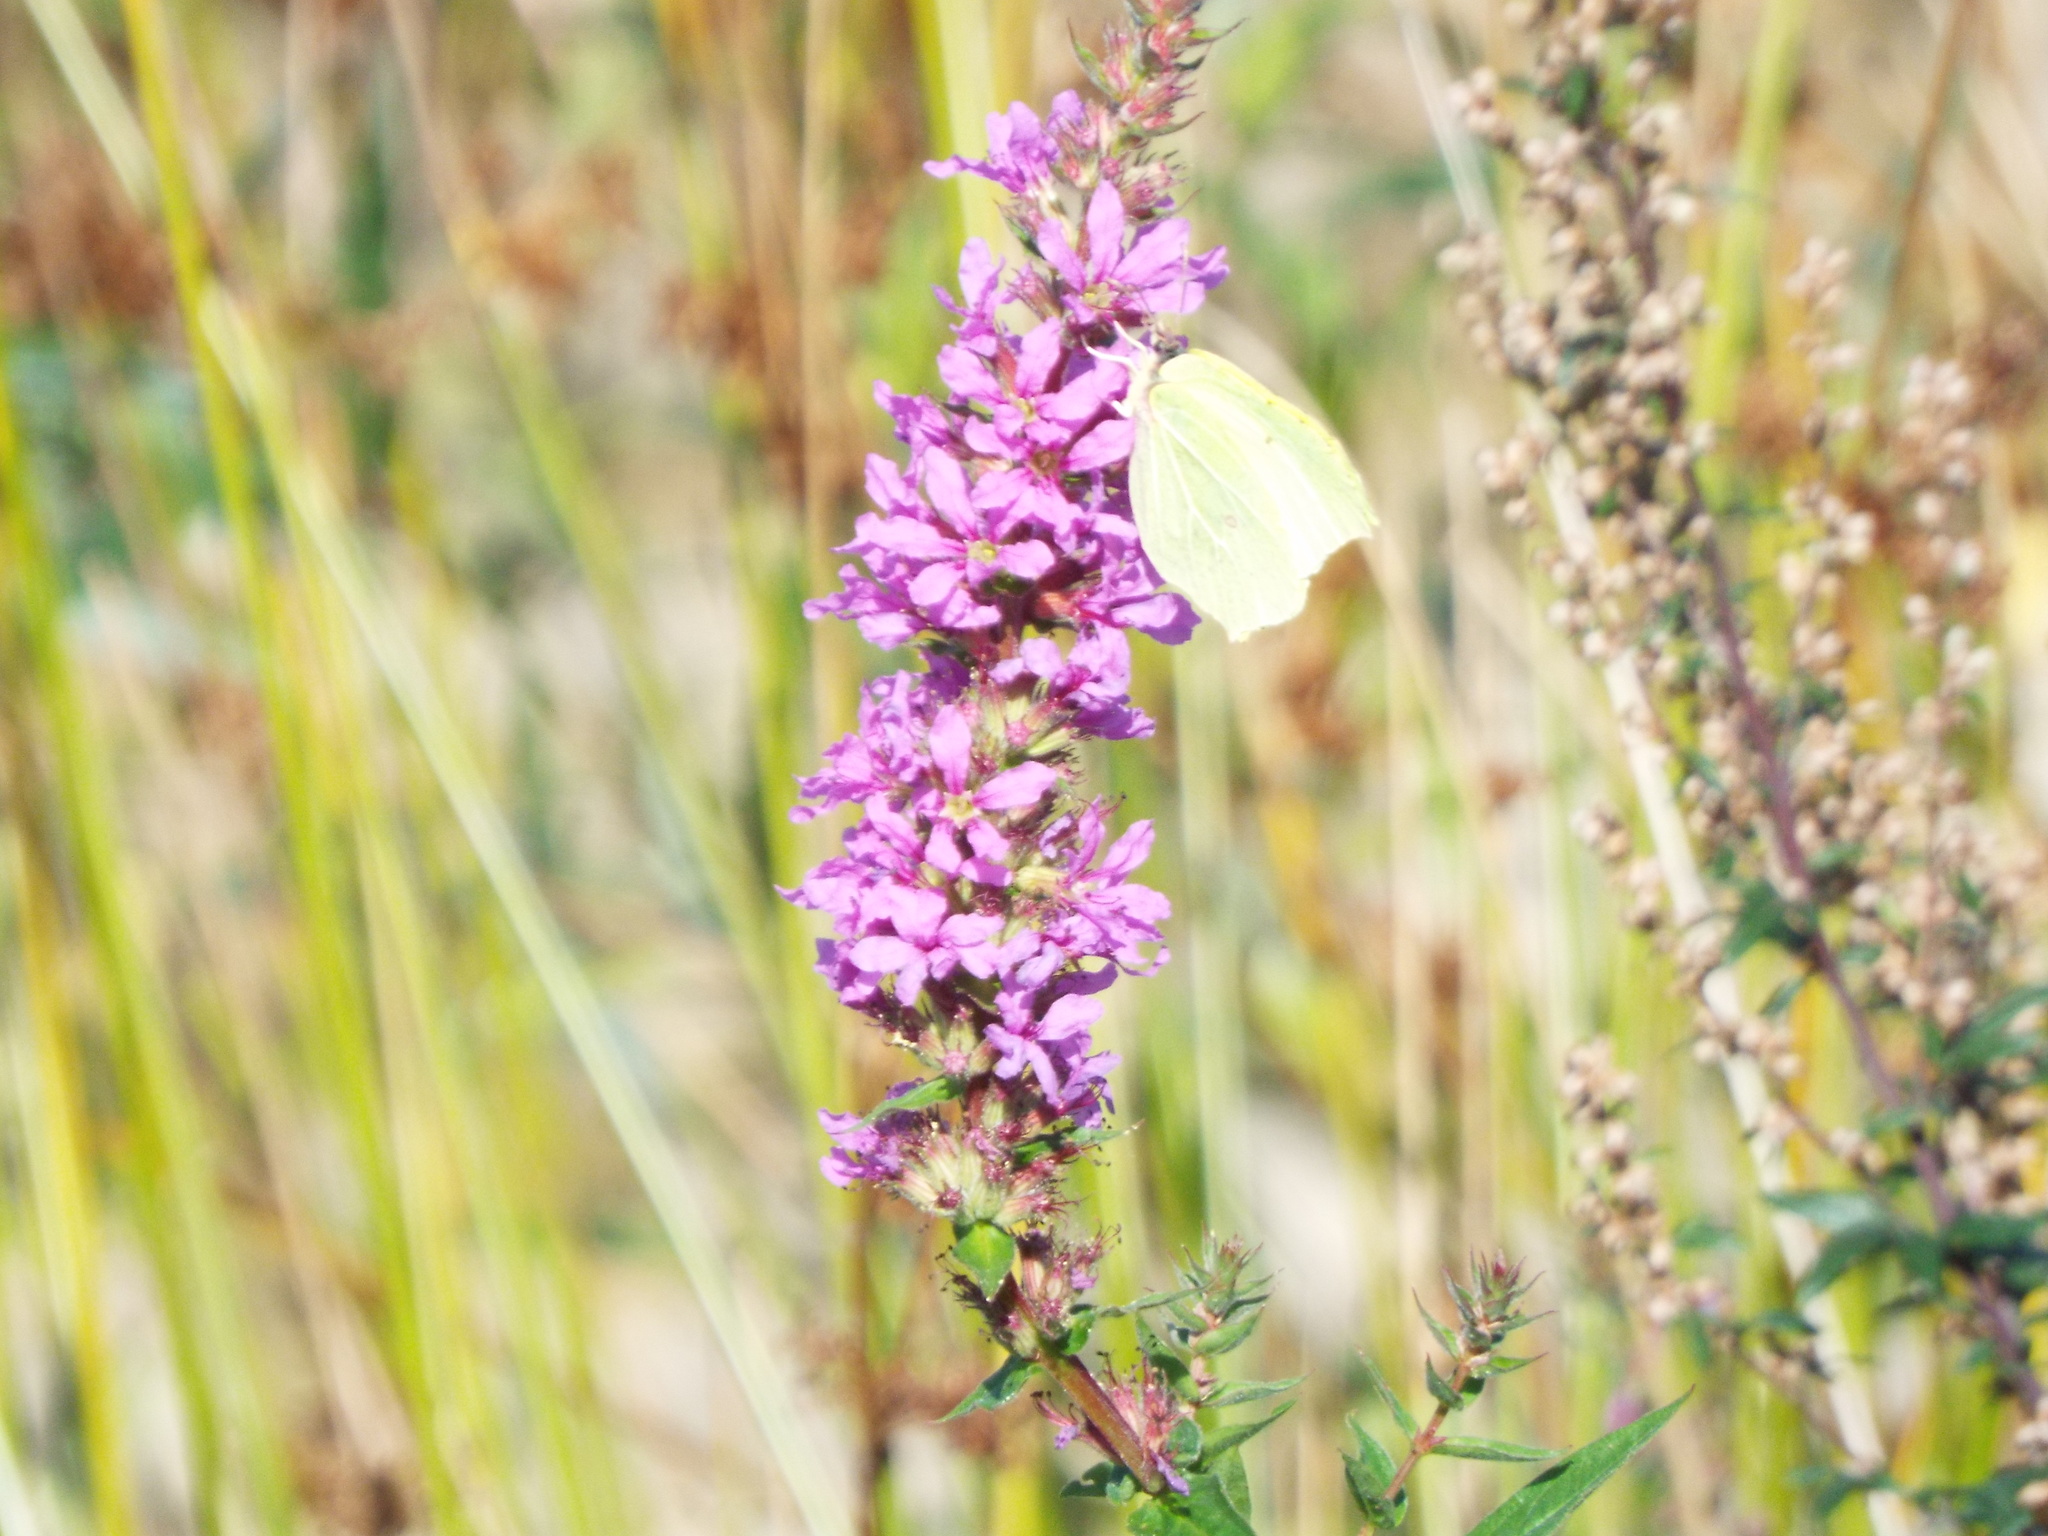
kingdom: Animalia
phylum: Arthropoda
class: Insecta
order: Lepidoptera
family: Pieridae
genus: Gonepteryx
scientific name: Gonepteryx rhamni
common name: Brimstone
